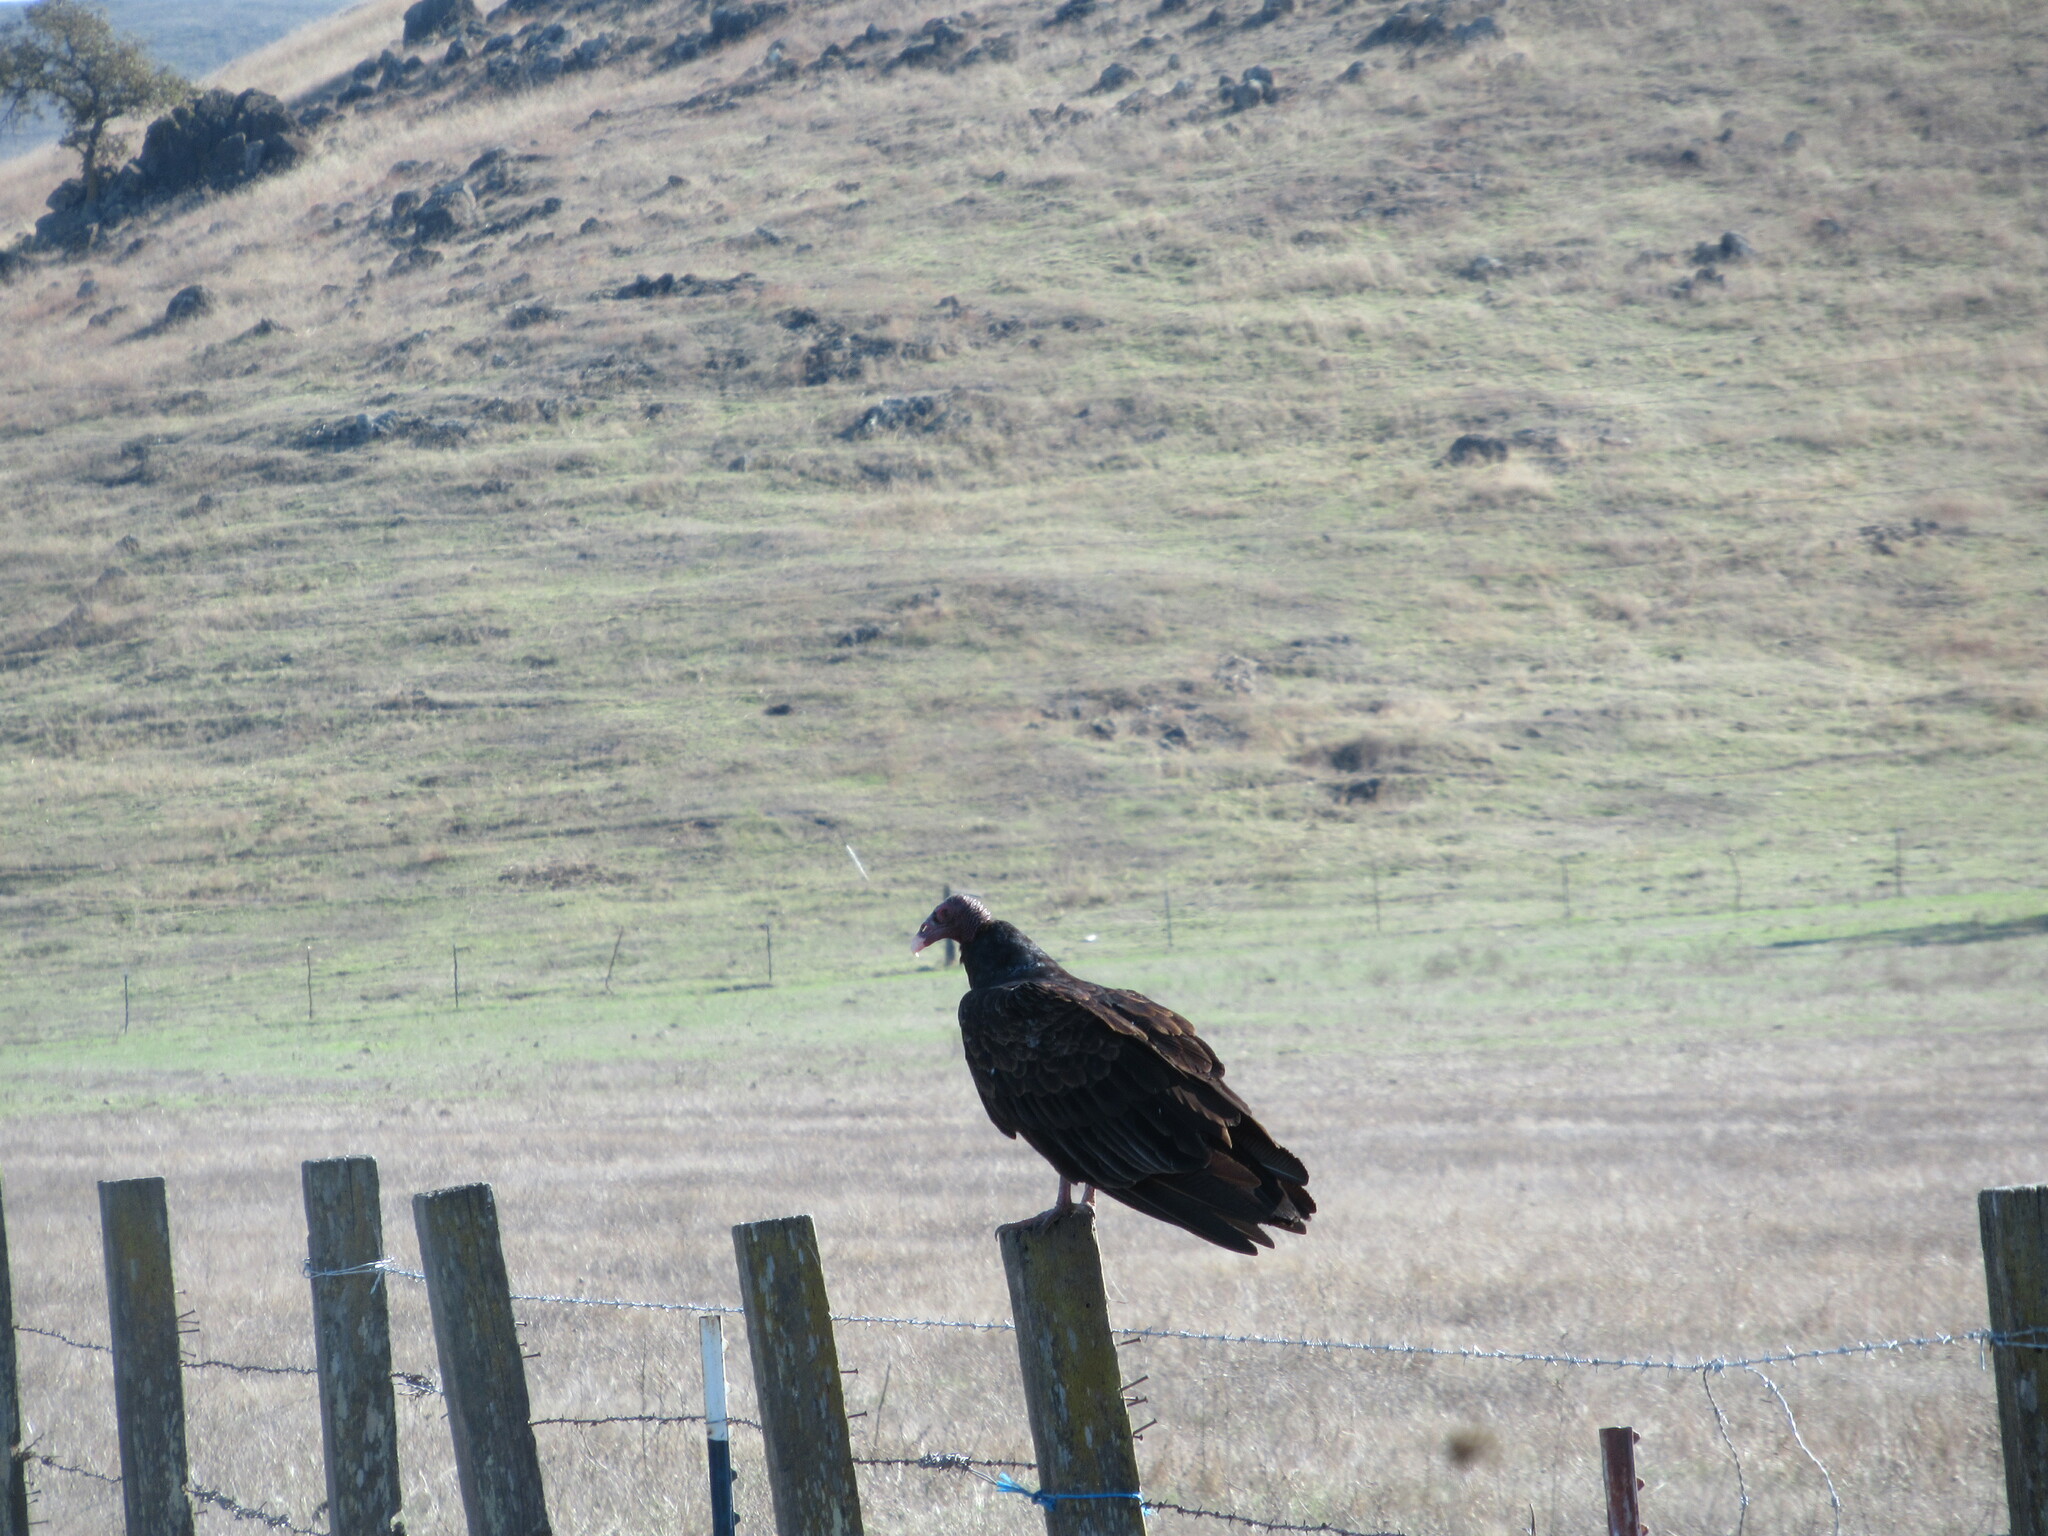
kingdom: Animalia
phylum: Chordata
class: Aves
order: Accipitriformes
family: Cathartidae
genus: Cathartes
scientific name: Cathartes aura
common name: Turkey vulture
